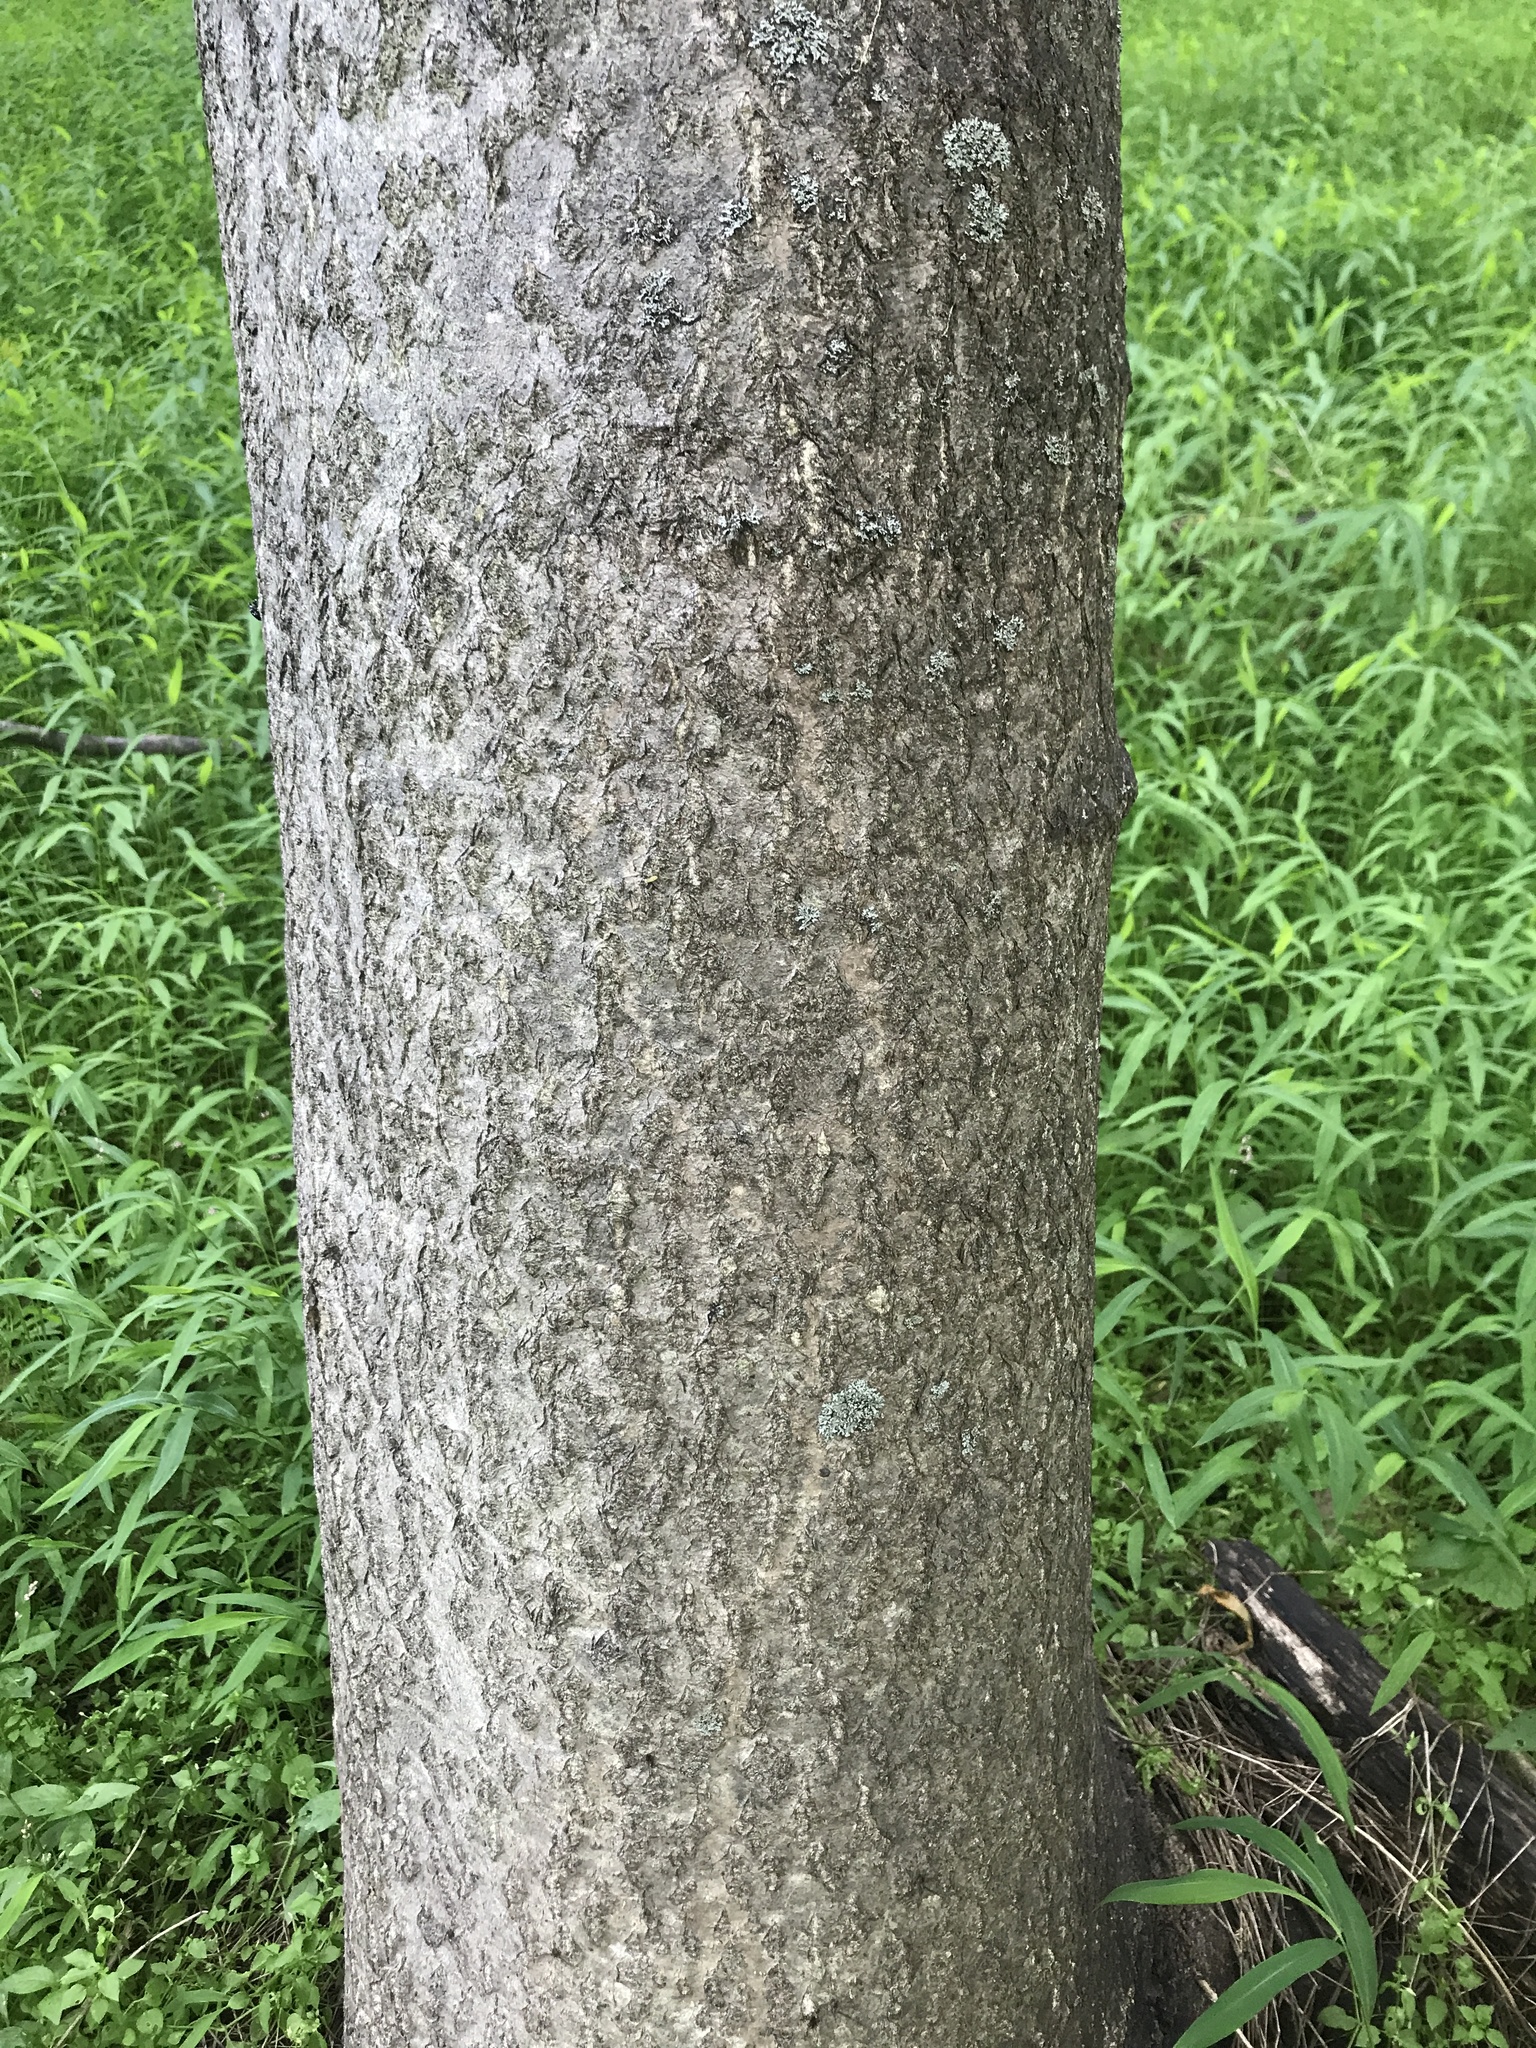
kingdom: Plantae
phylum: Tracheophyta
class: Magnoliopsida
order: Sapindales
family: Simaroubaceae
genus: Ailanthus
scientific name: Ailanthus altissima
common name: Tree-of-heaven
